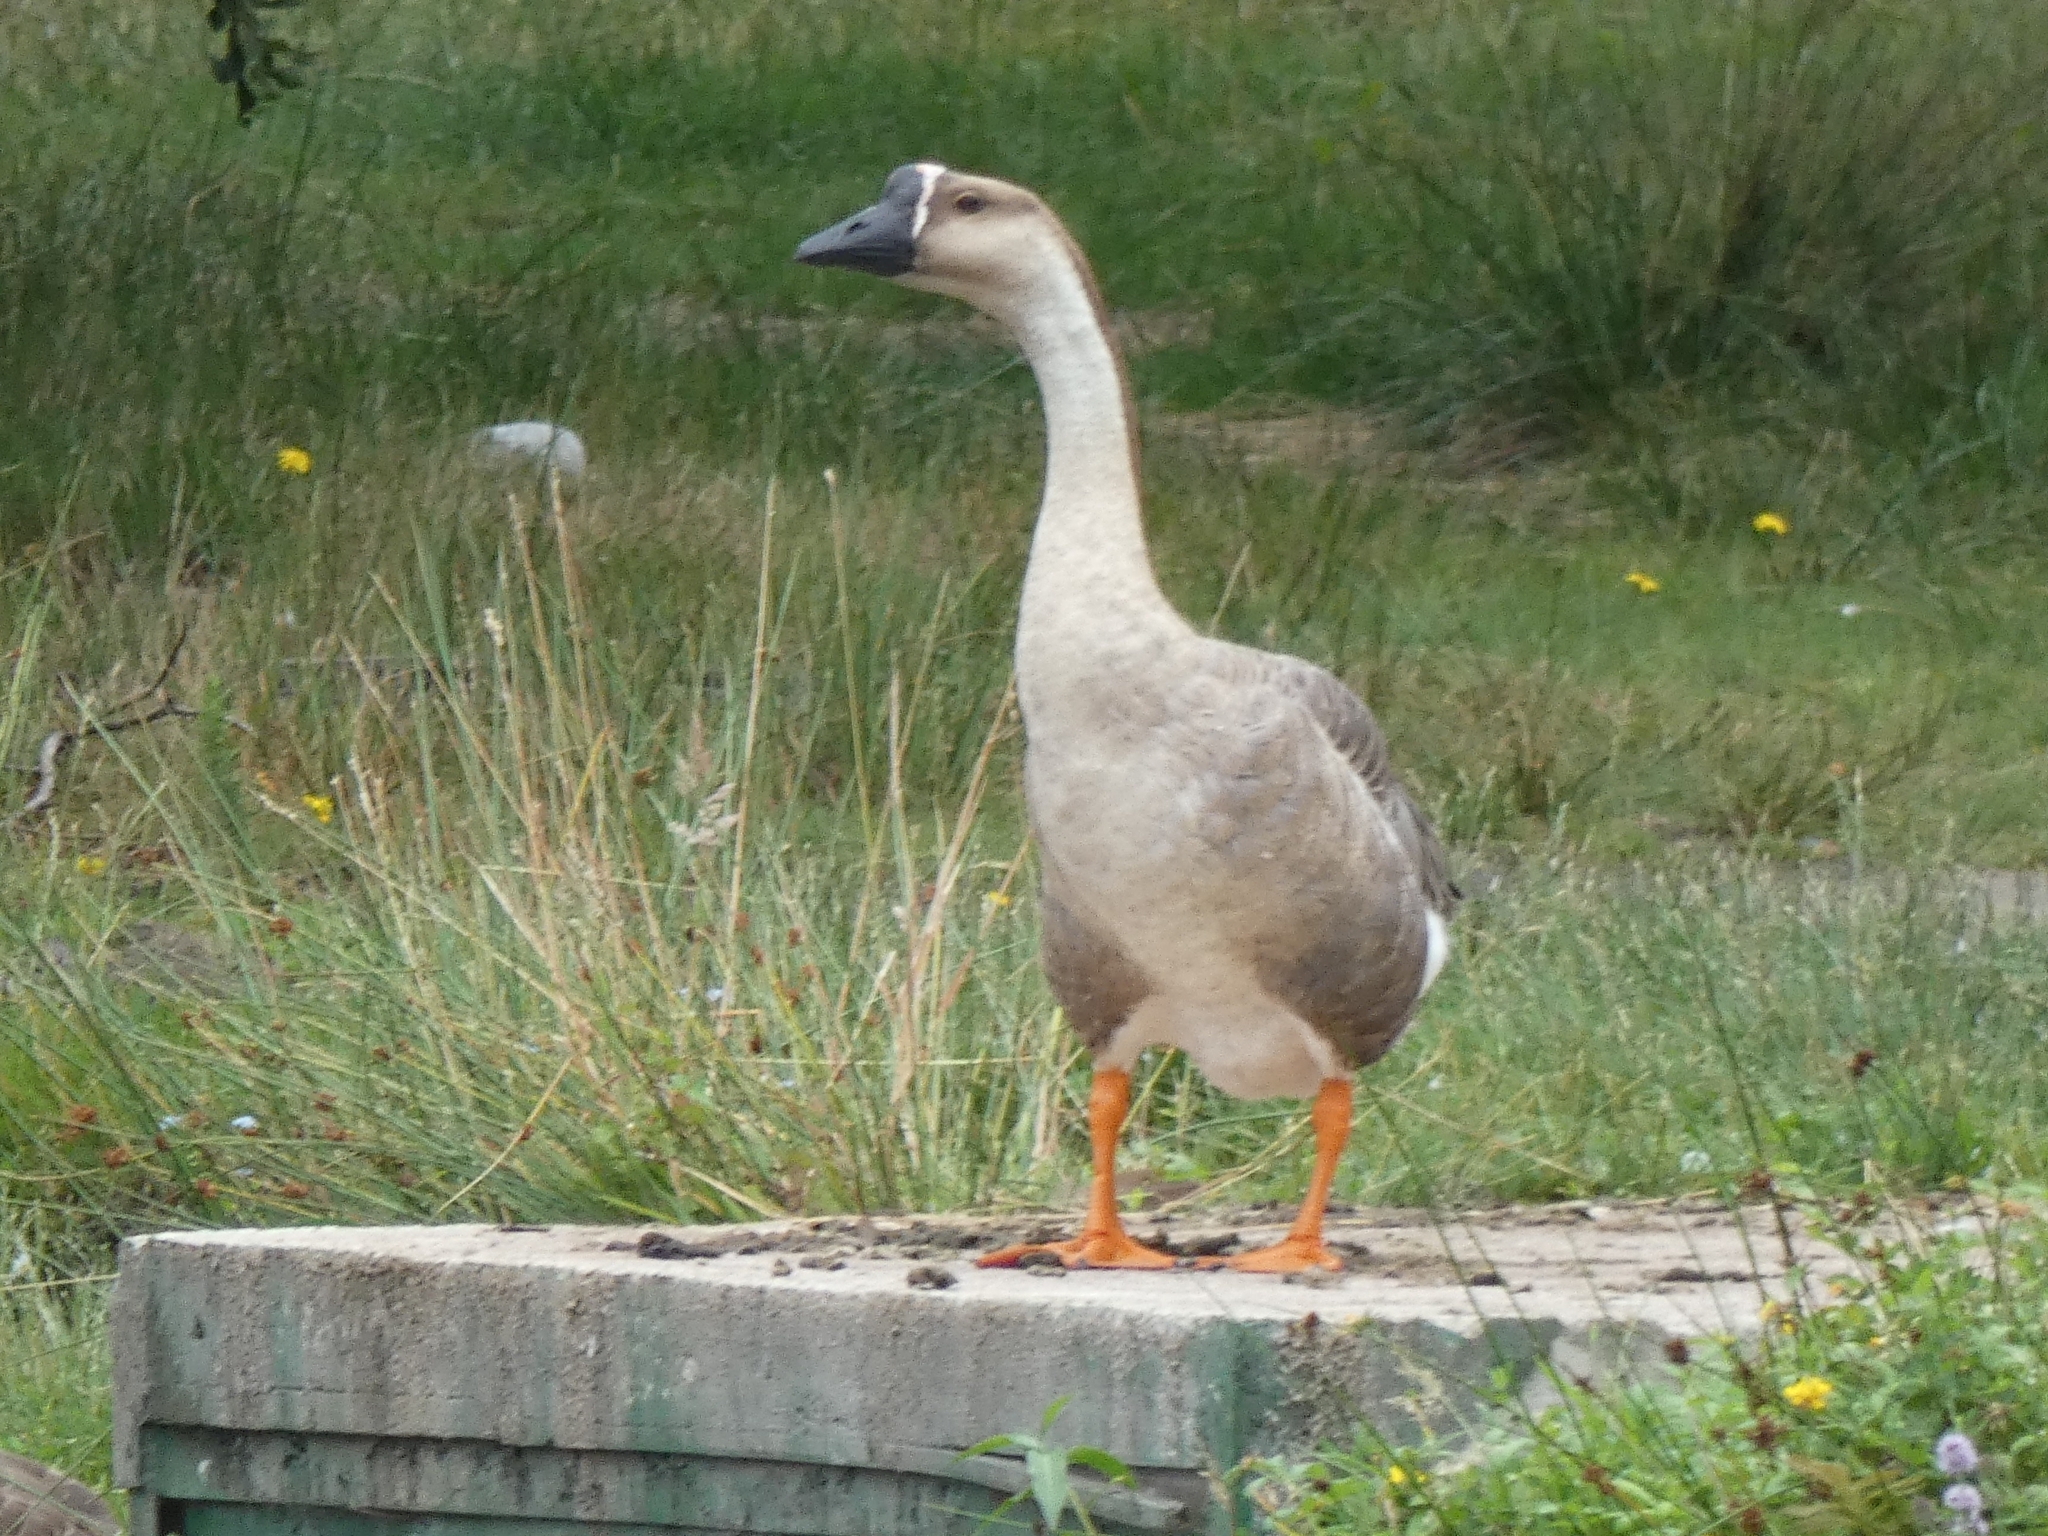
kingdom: Animalia
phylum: Chordata
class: Aves
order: Anseriformes
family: Anatidae
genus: Anser
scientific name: Anser cygnoides
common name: Swan goose
